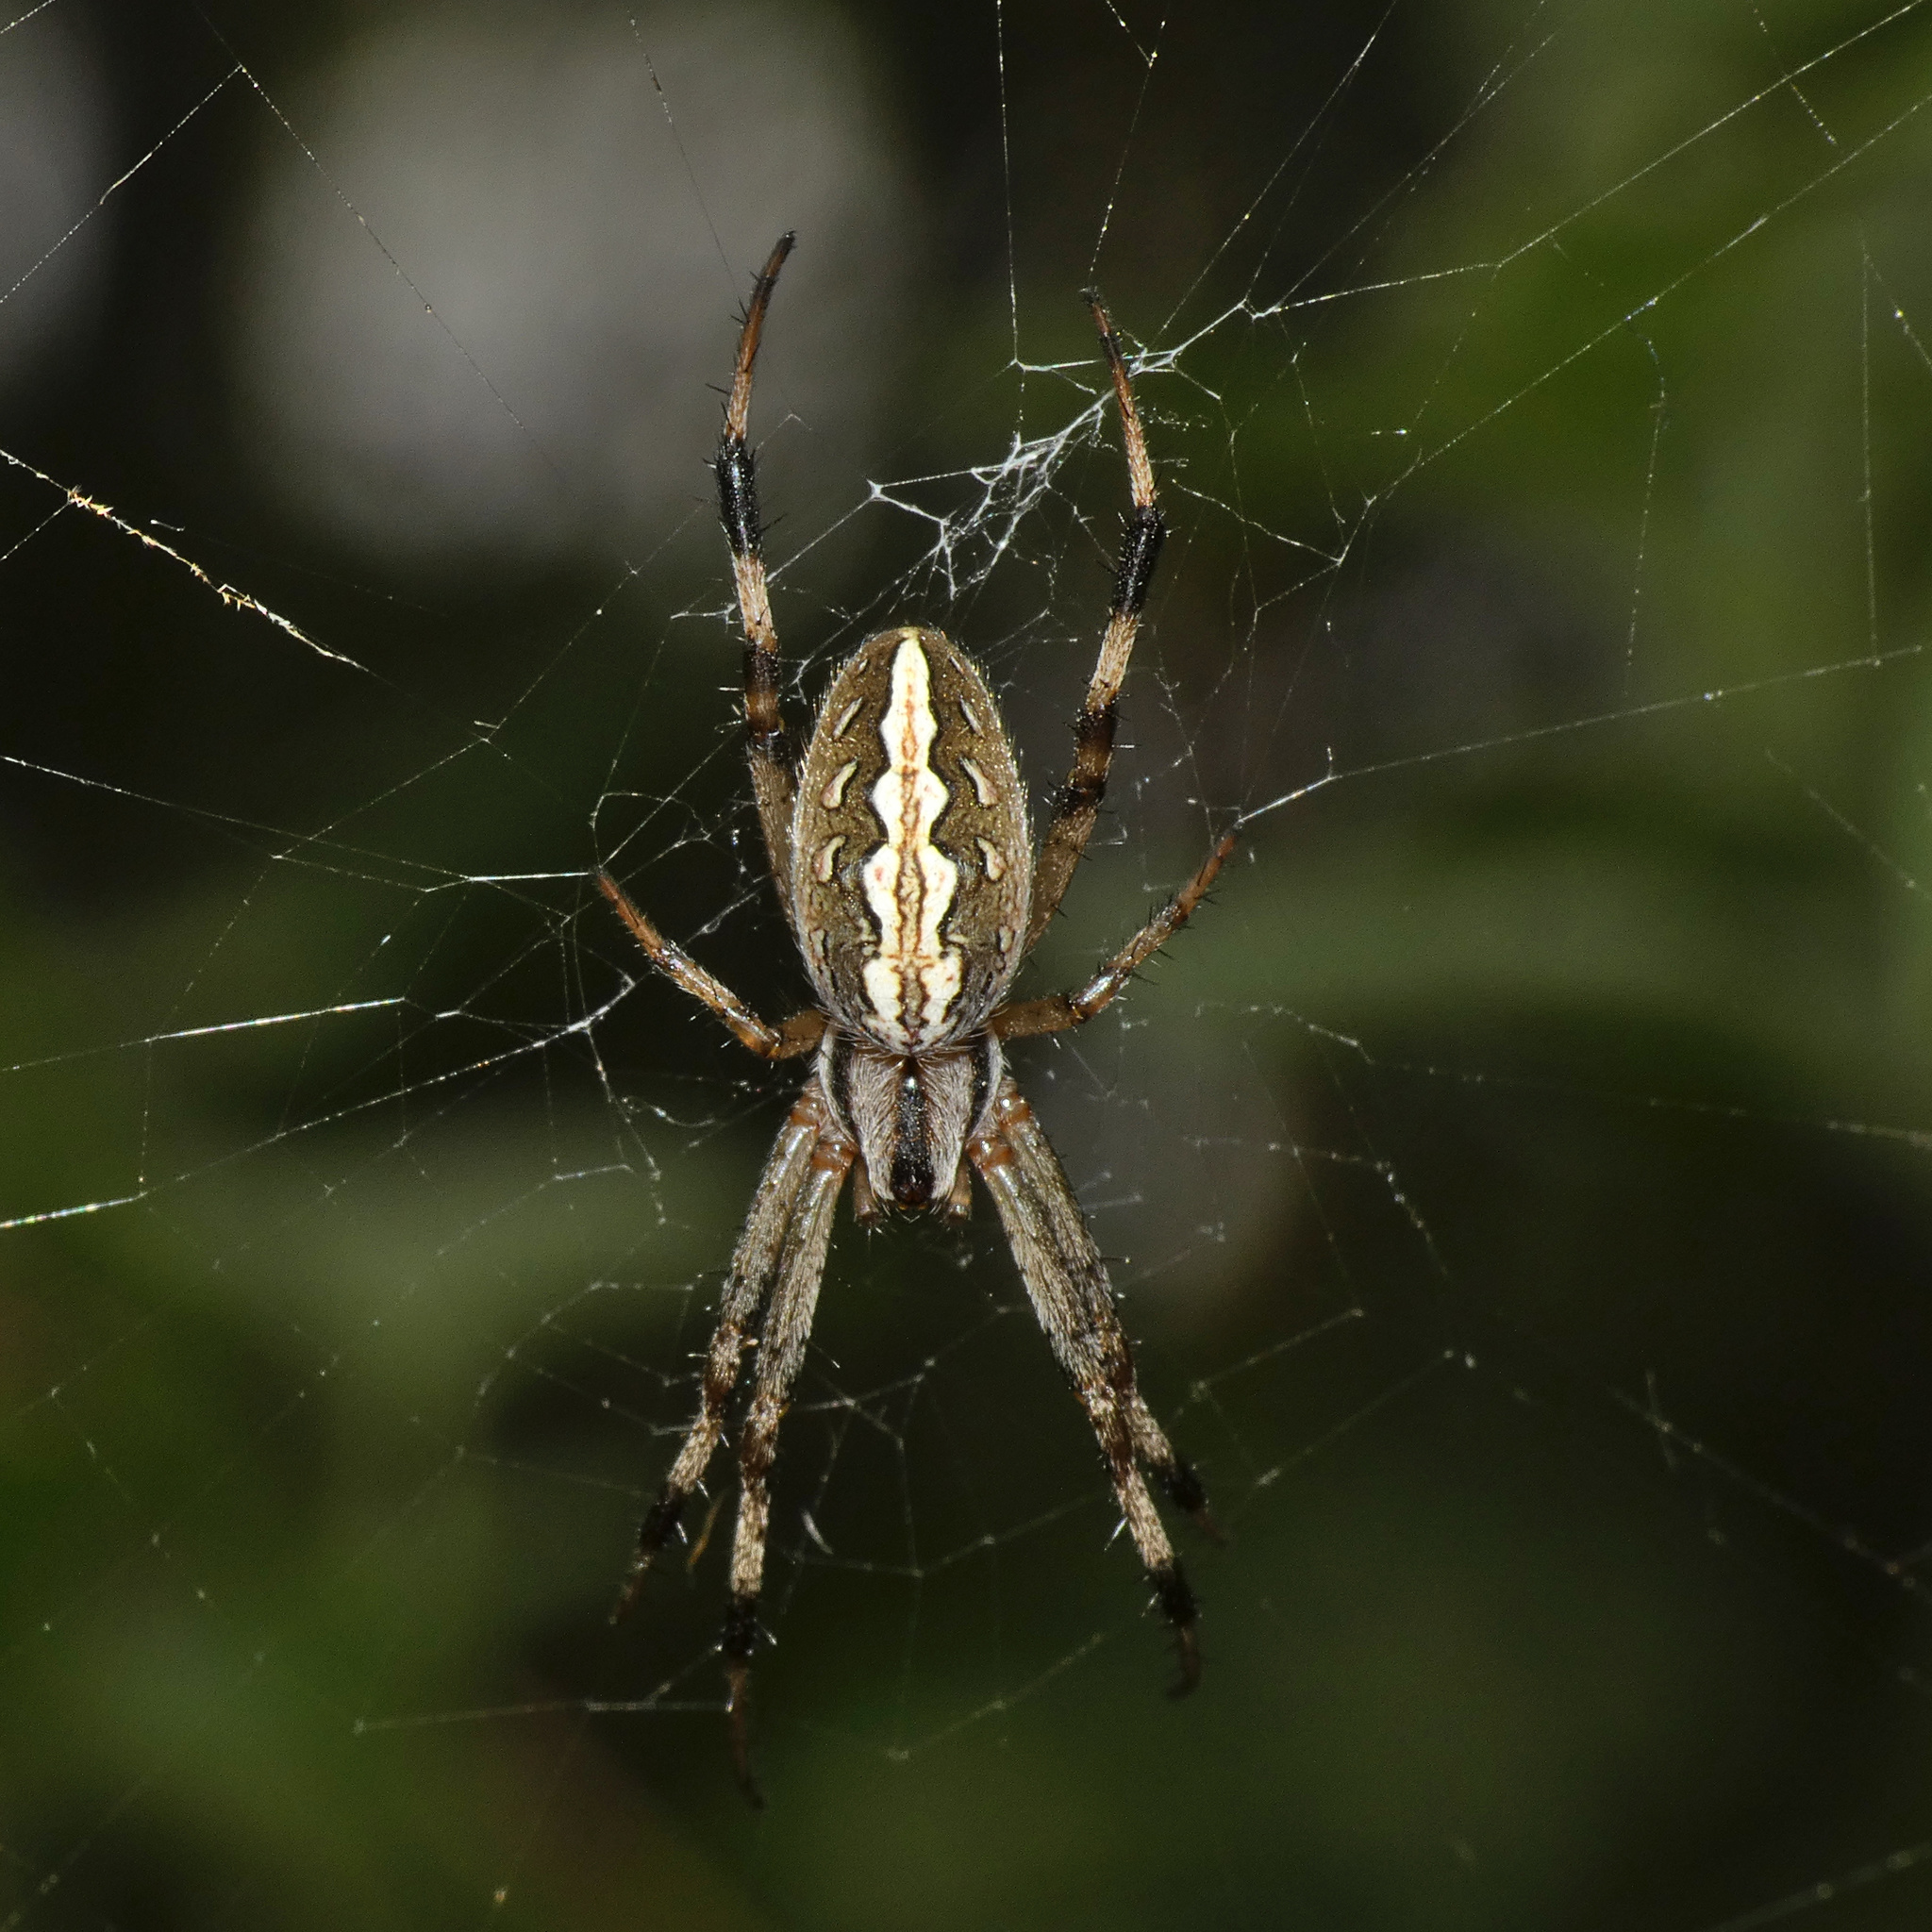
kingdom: Animalia
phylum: Arthropoda
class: Arachnida
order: Araneae
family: Araneidae
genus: Neoscona
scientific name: Neoscona moreli
